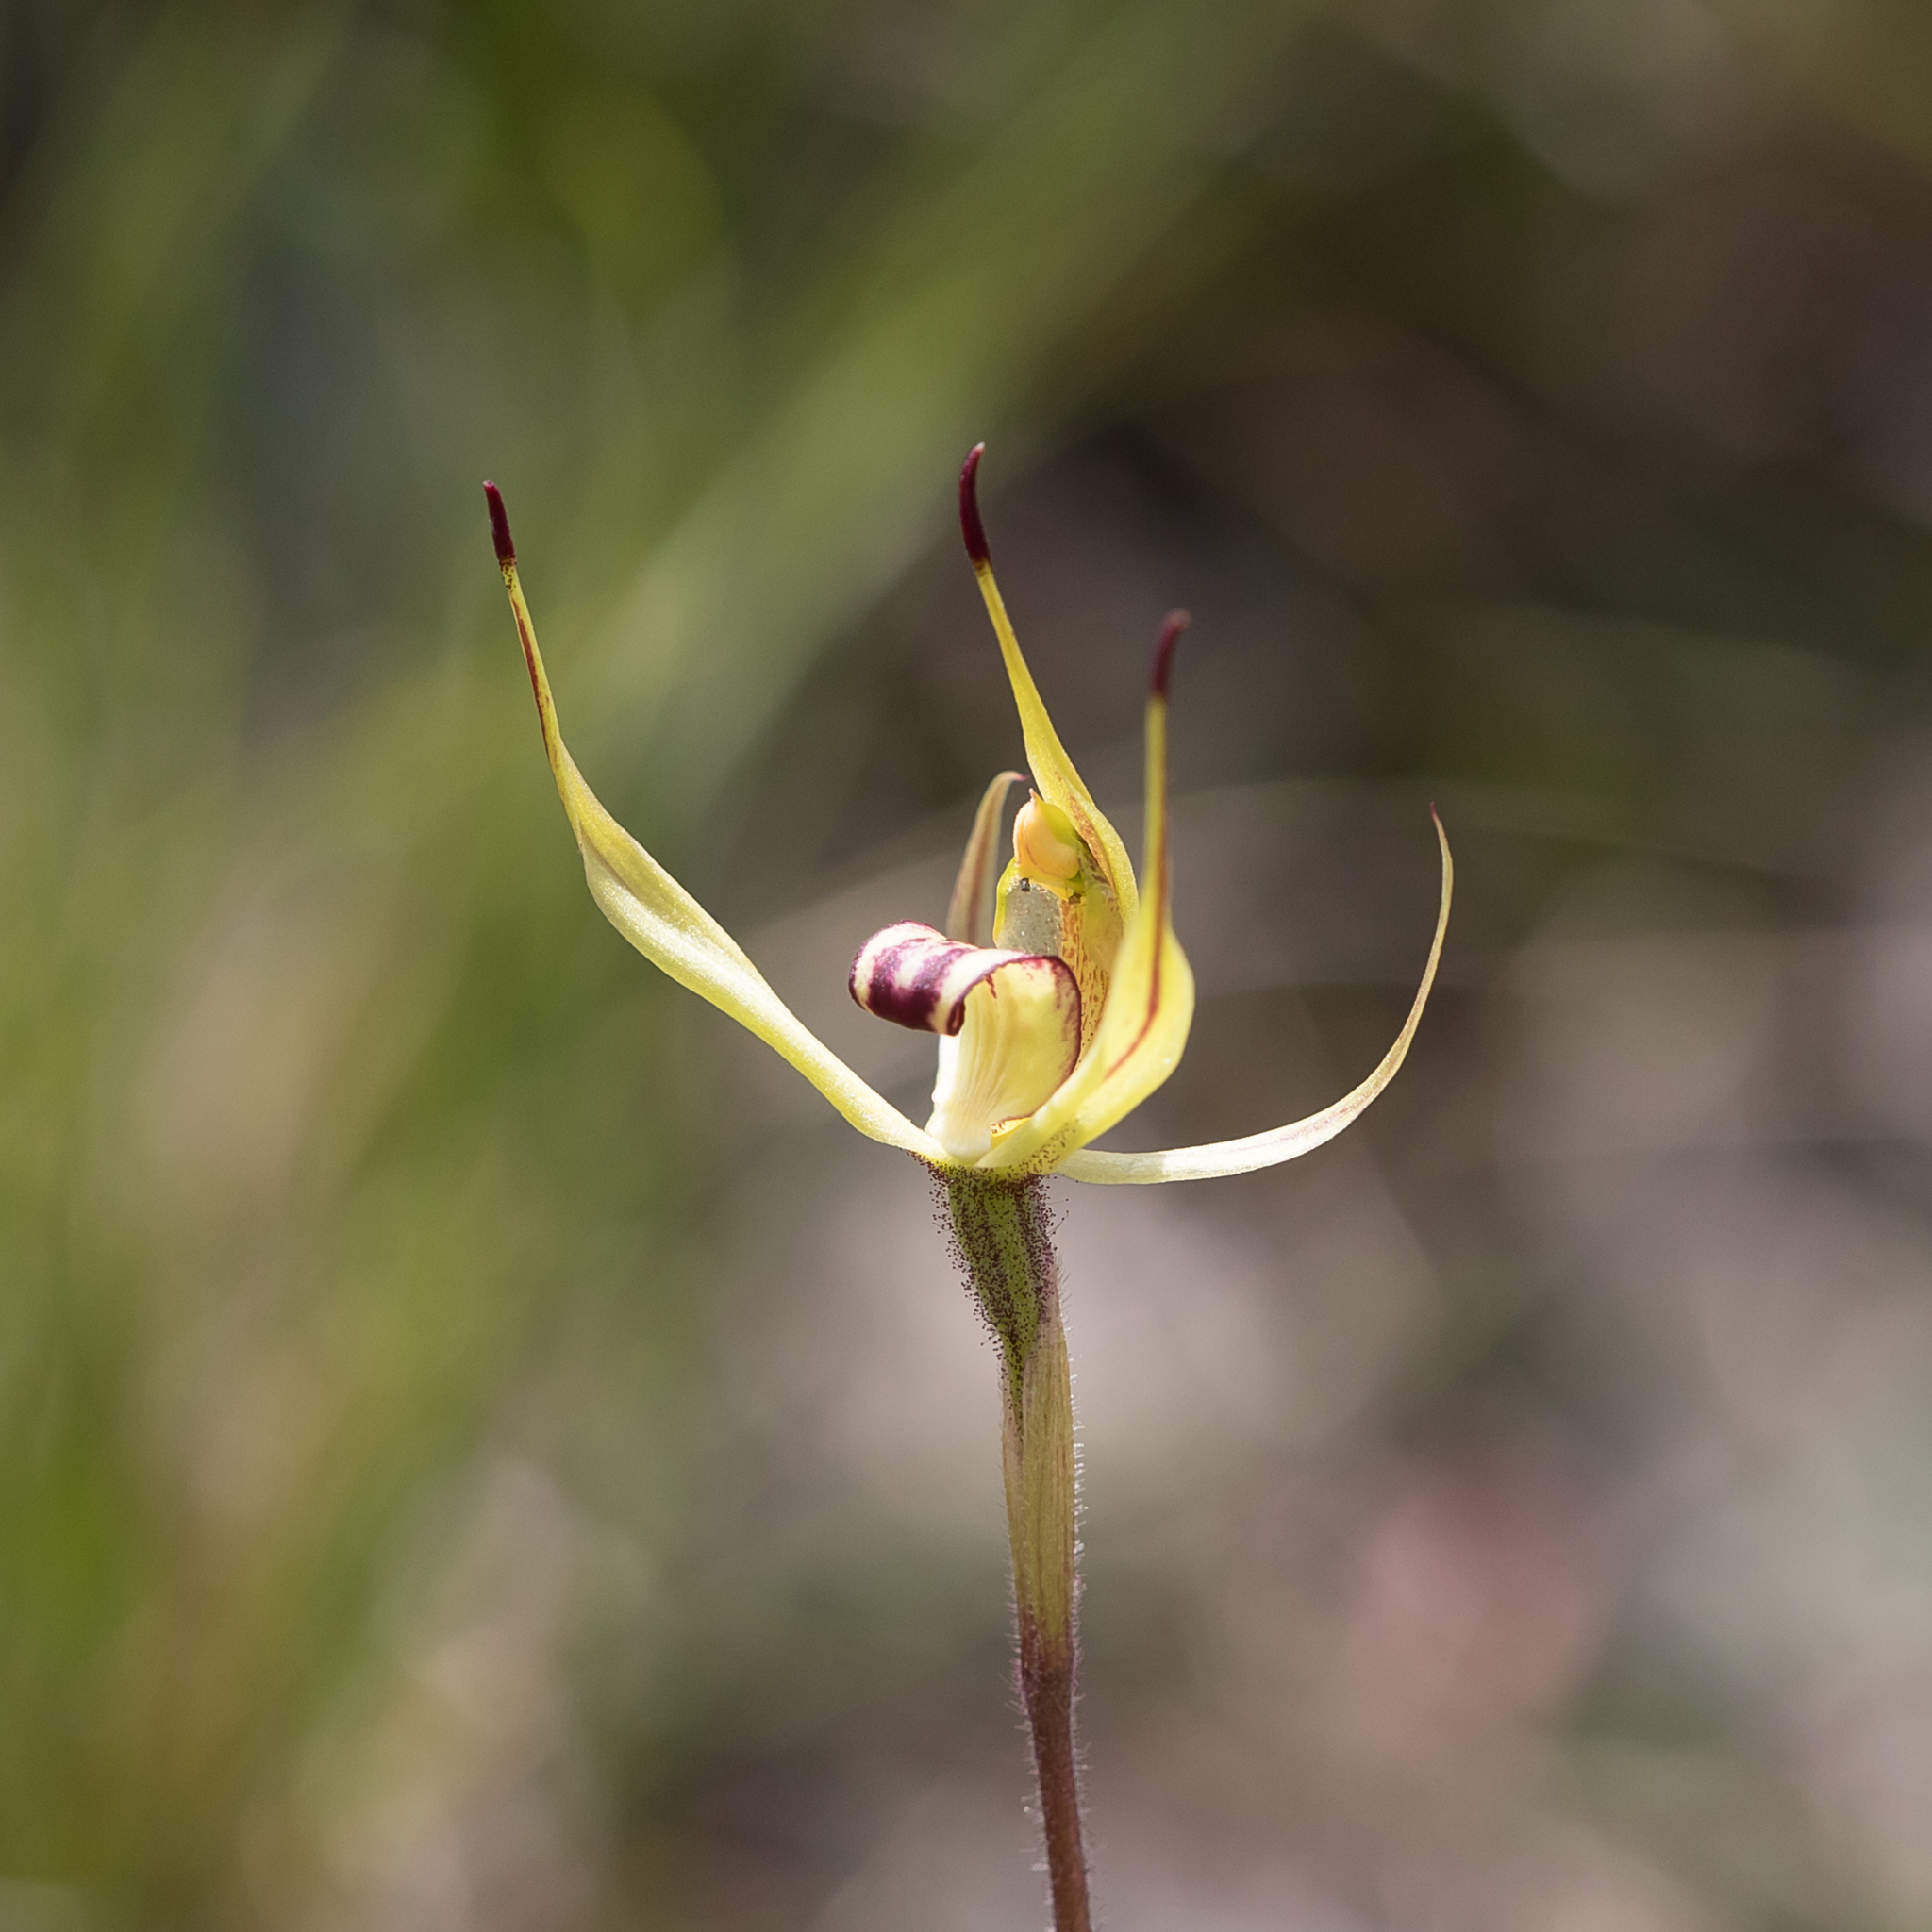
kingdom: Plantae
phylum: Tracheophyta
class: Liliopsida
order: Asparagales
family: Orchidaceae
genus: Caladenia
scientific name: Caladenia leptochila
